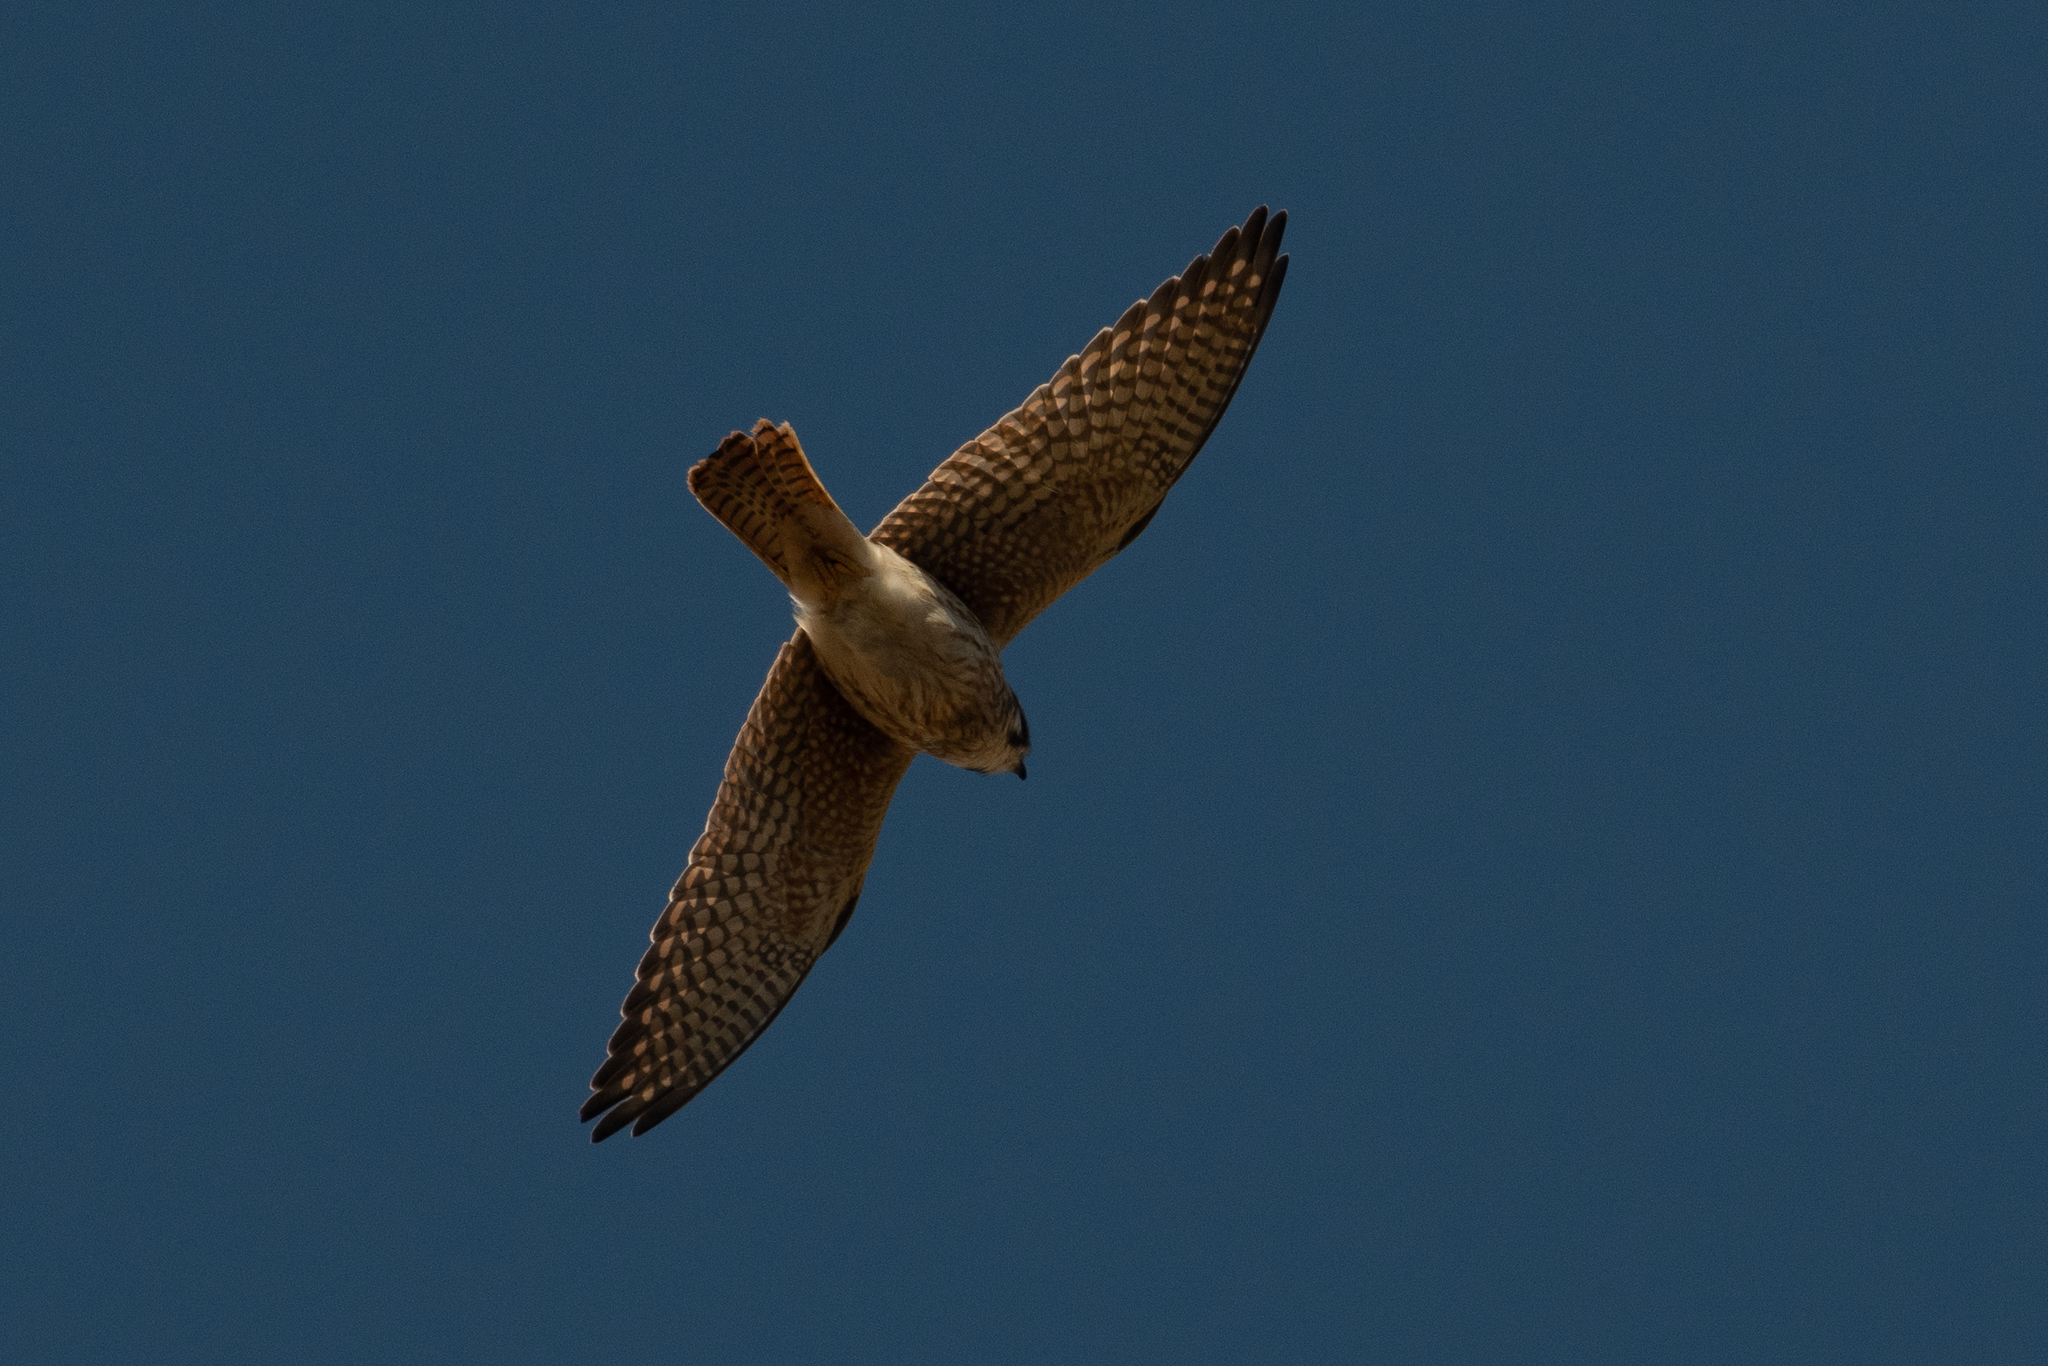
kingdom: Animalia
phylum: Chordata
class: Aves
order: Falconiformes
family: Falconidae
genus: Falco
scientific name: Falco sparverius
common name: American kestrel
